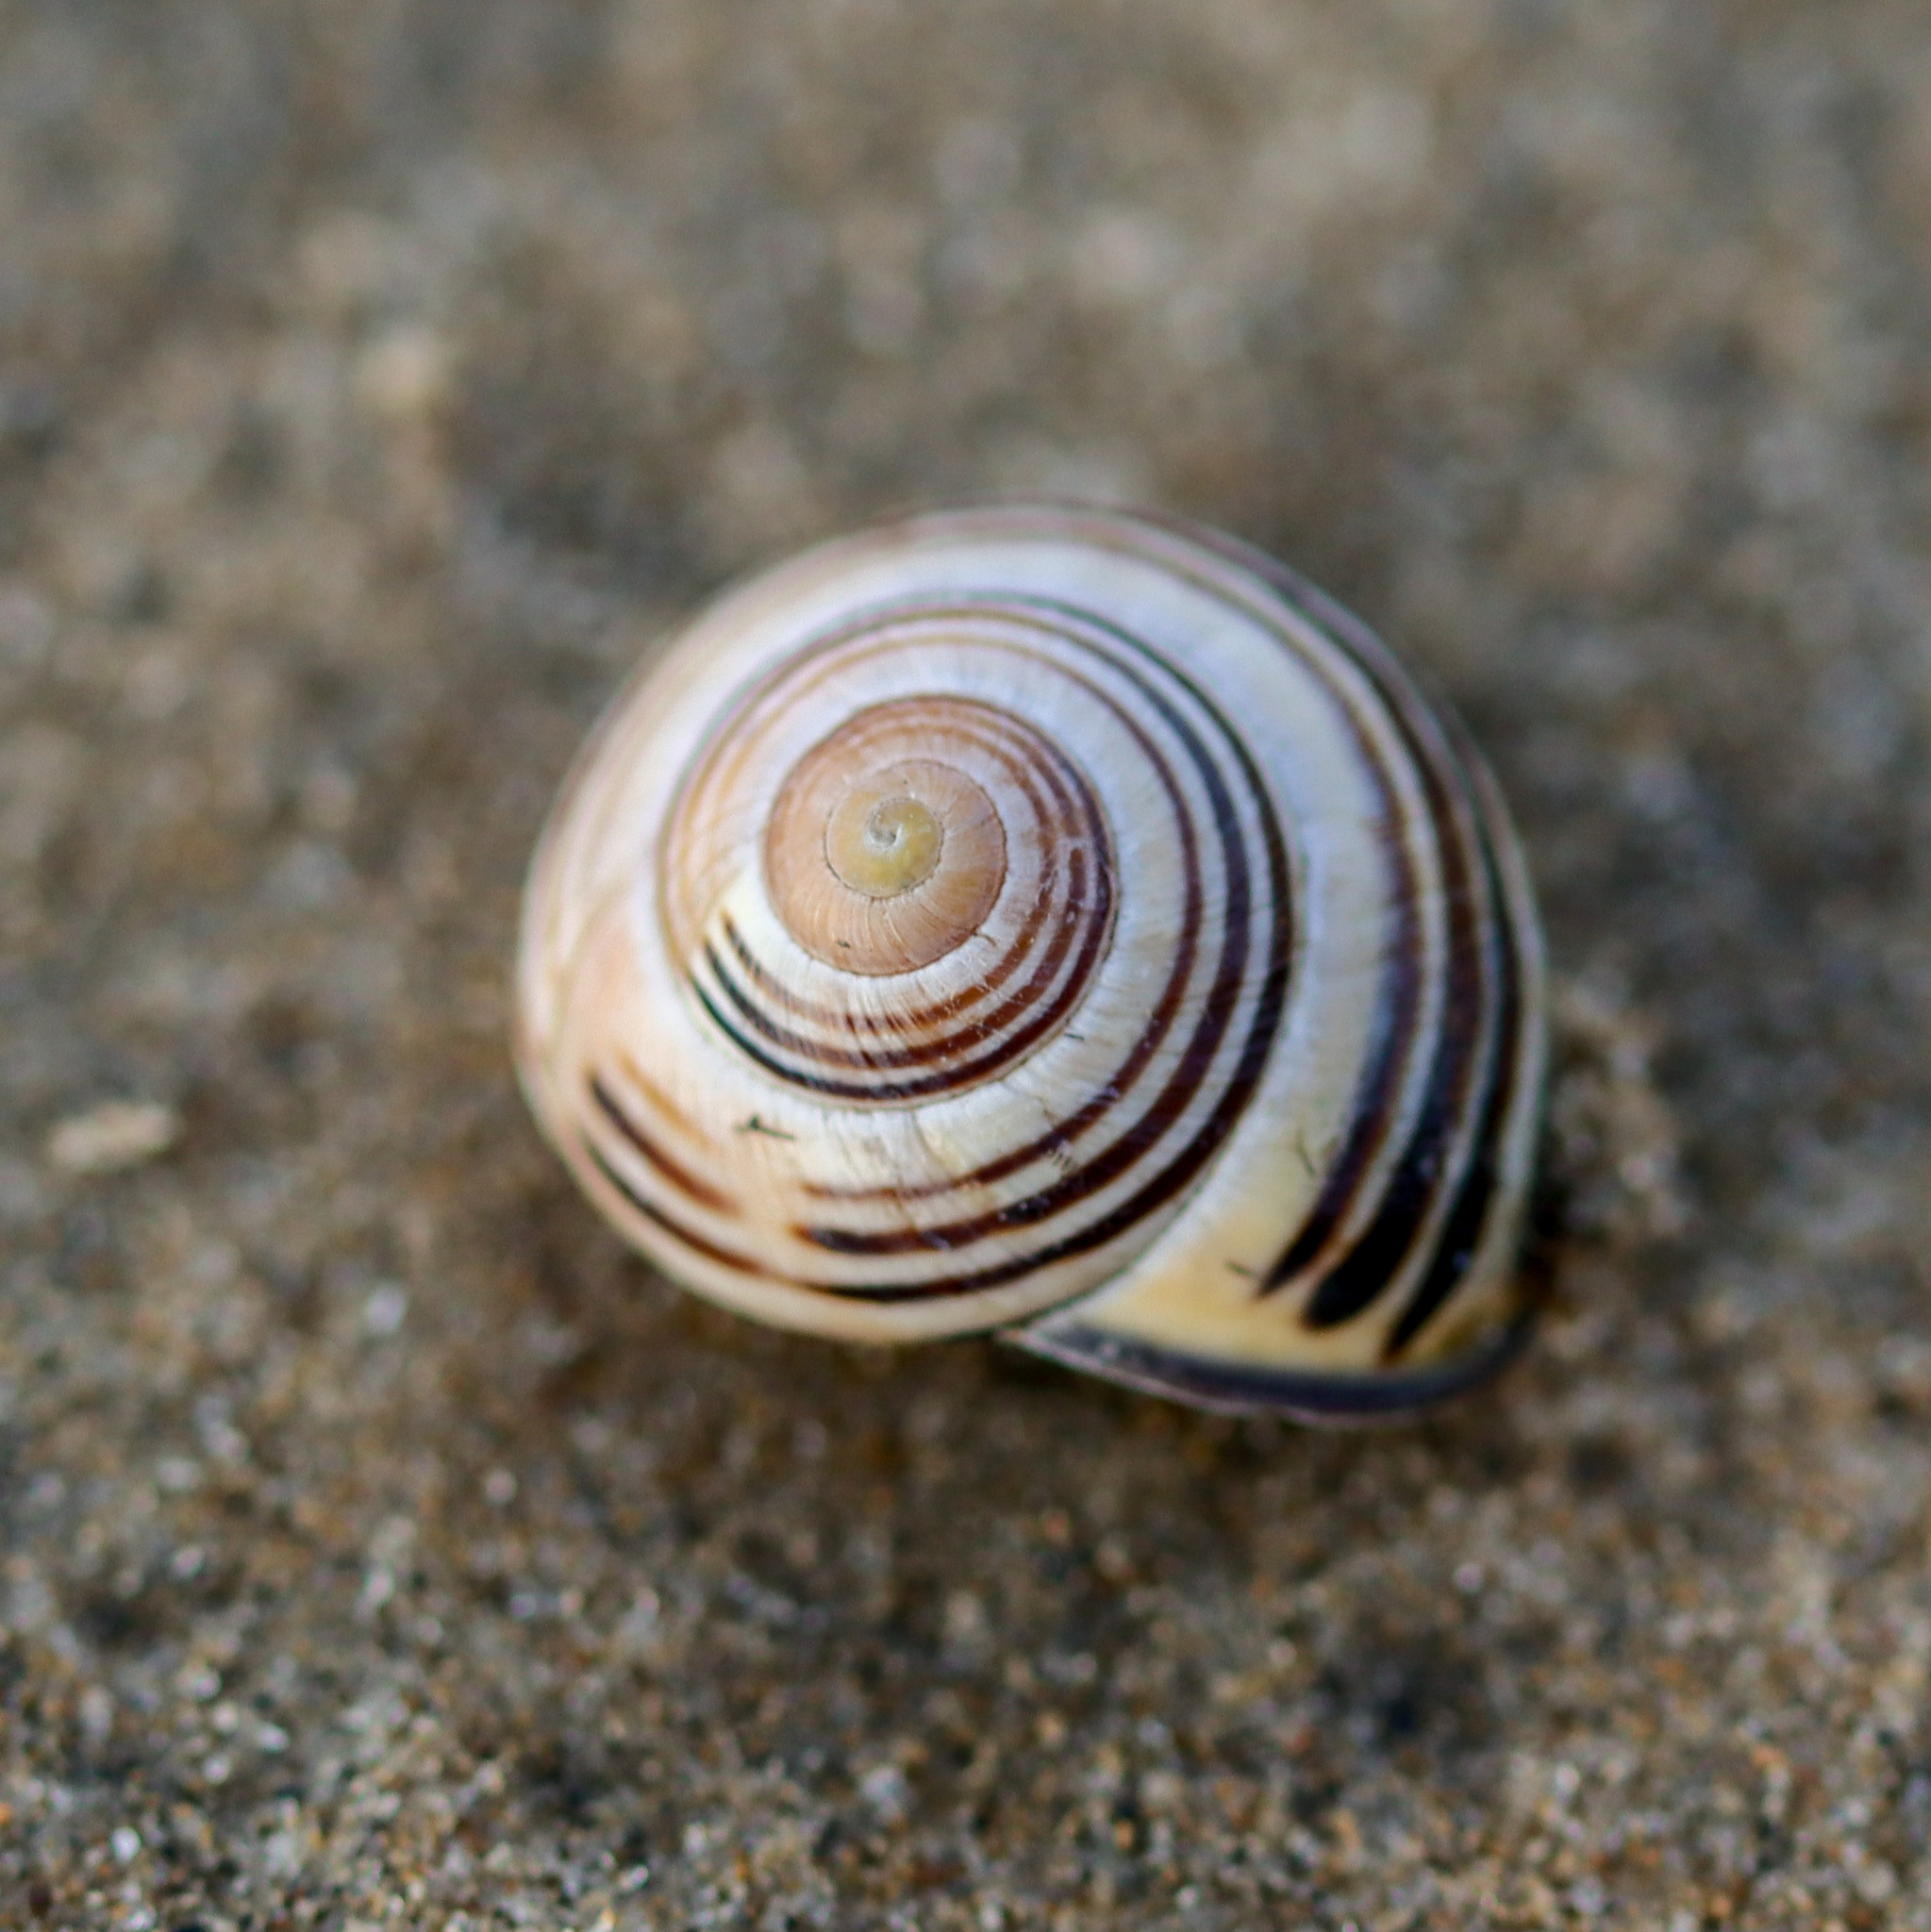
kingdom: Animalia
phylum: Mollusca
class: Gastropoda
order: Stylommatophora
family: Helicidae
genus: Cepaea
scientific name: Cepaea nemoralis
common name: Grovesnail
